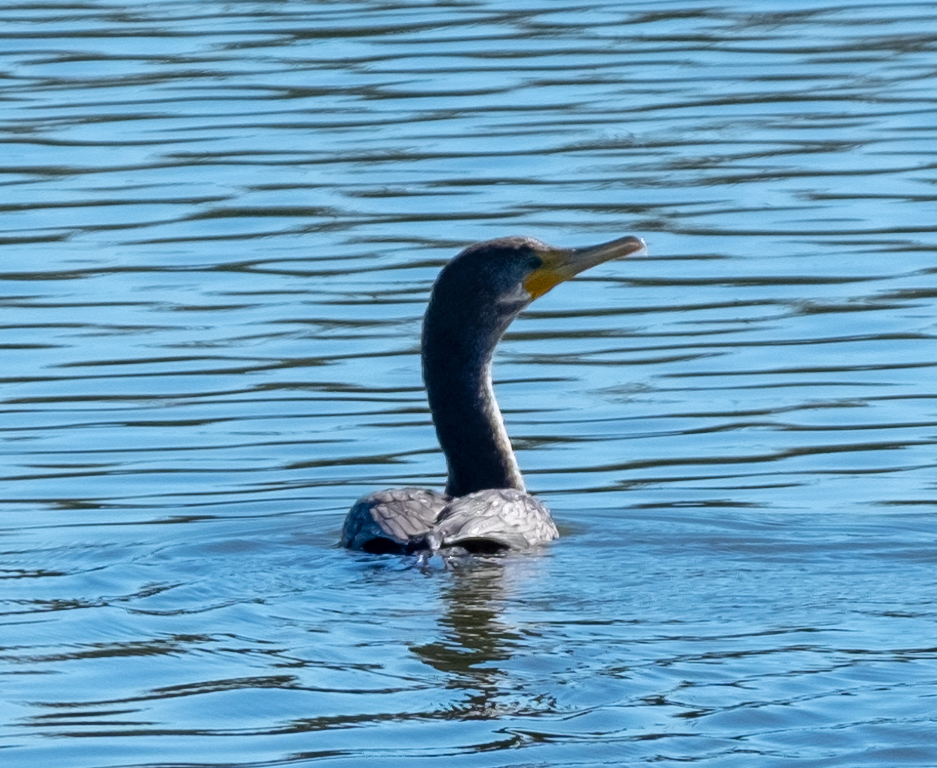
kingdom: Animalia
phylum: Chordata
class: Aves
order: Suliformes
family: Phalacrocoracidae
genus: Phalacrocorax
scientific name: Phalacrocorax auritus
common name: Double-crested cormorant
